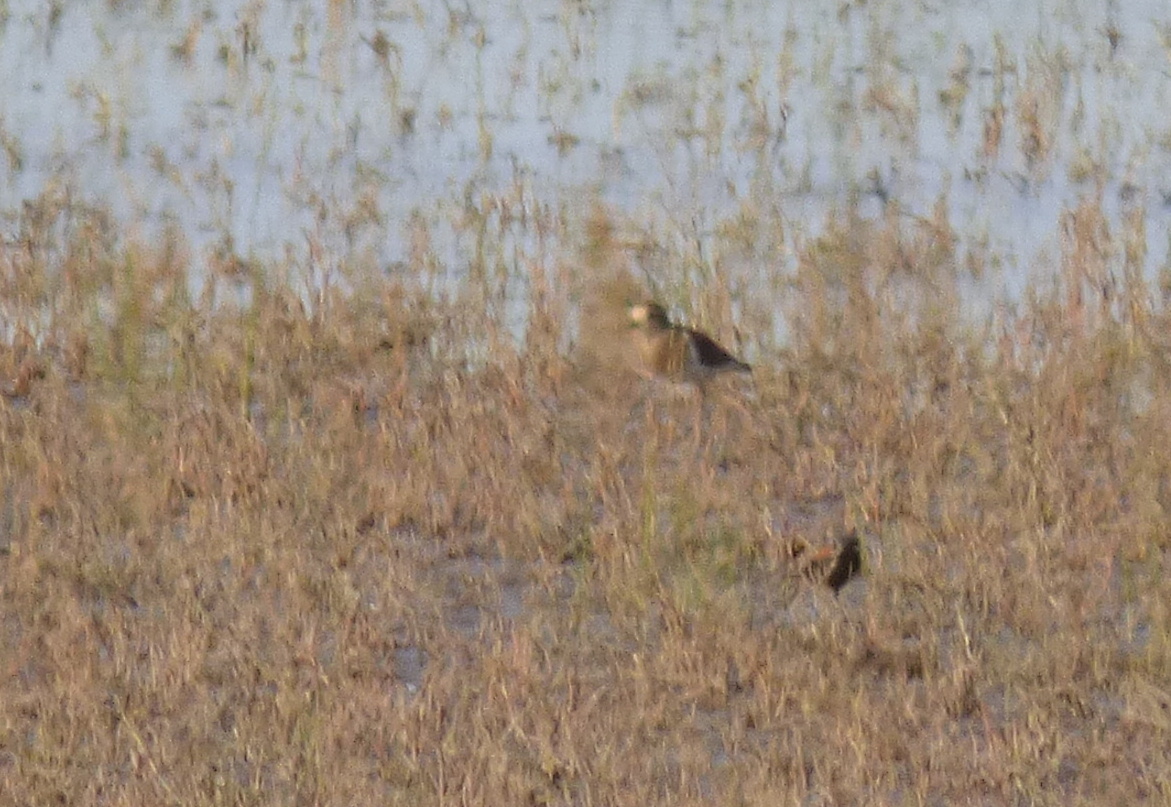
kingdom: Animalia
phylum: Chordata
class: Aves
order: Charadriiformes
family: Charadriidae
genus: Charadrius
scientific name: Charadrius modestus
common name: Rufous-chested plover
